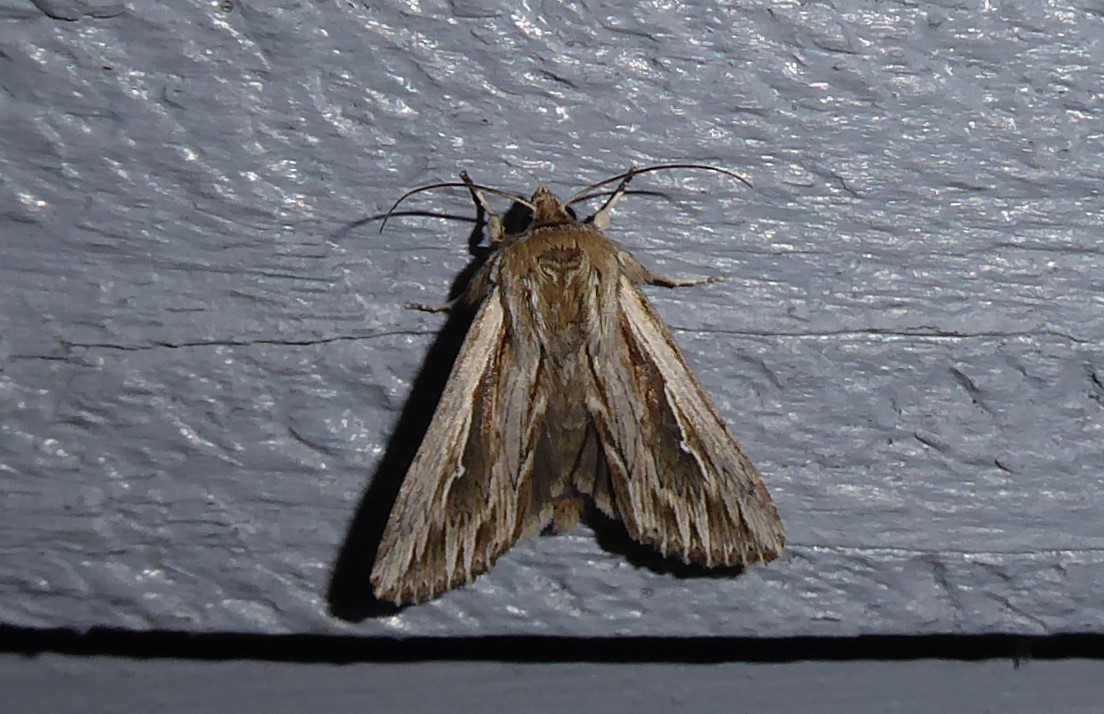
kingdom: Animalia
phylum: Arthropoda
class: Insecta
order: Lepidoptera
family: Noctuidae
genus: Persectania
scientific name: Persectania aversa
